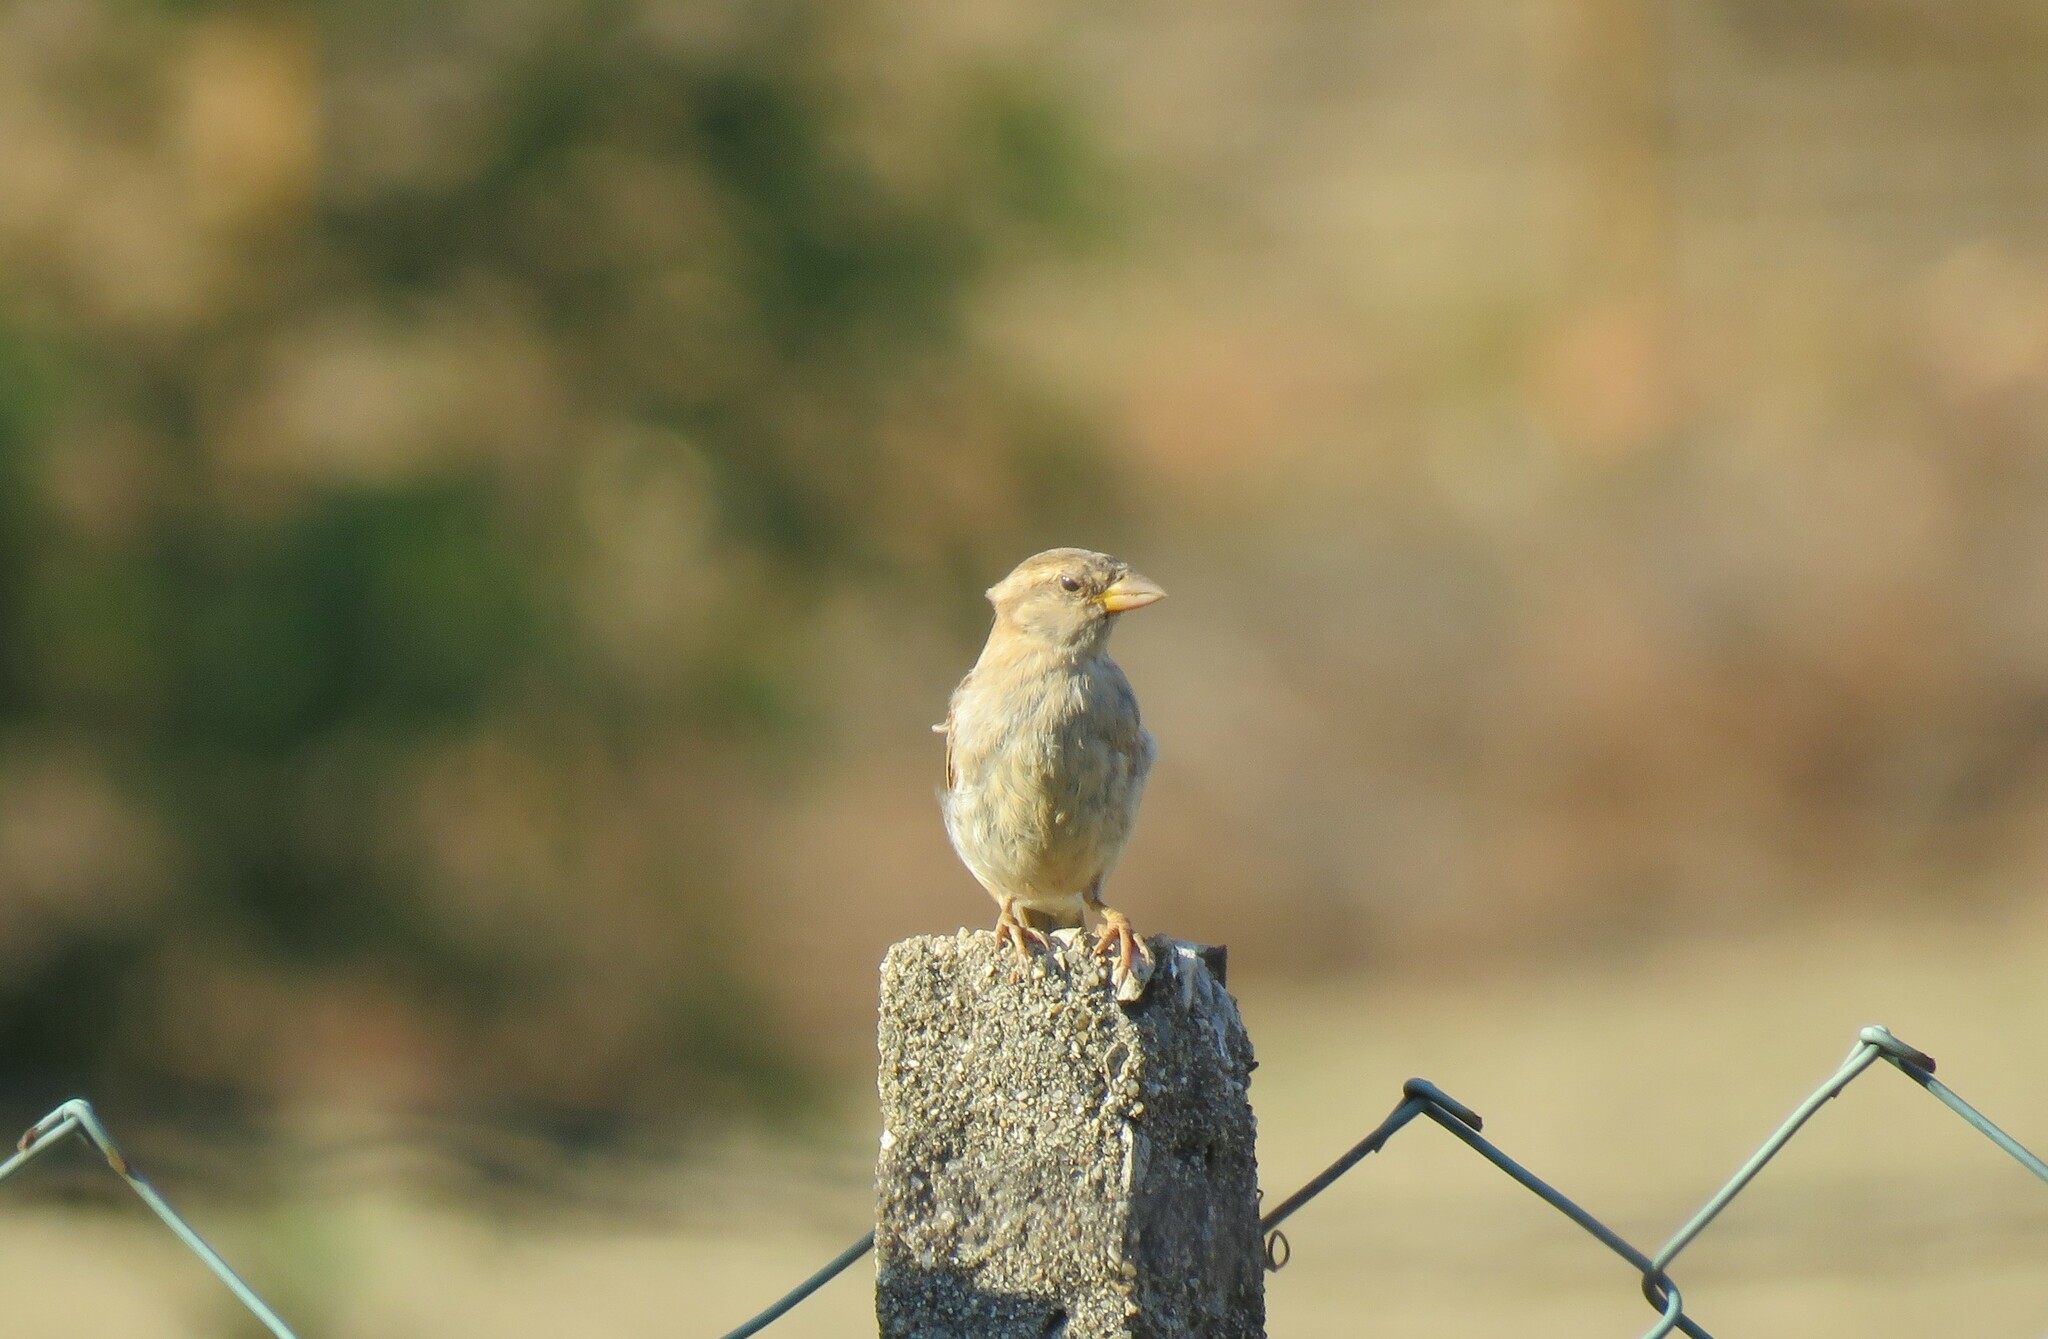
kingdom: Animalia
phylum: Chordata
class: Aves
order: Passeriformes
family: Passeridae
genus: Passer
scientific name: Passer domesticus
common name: House sparrow
